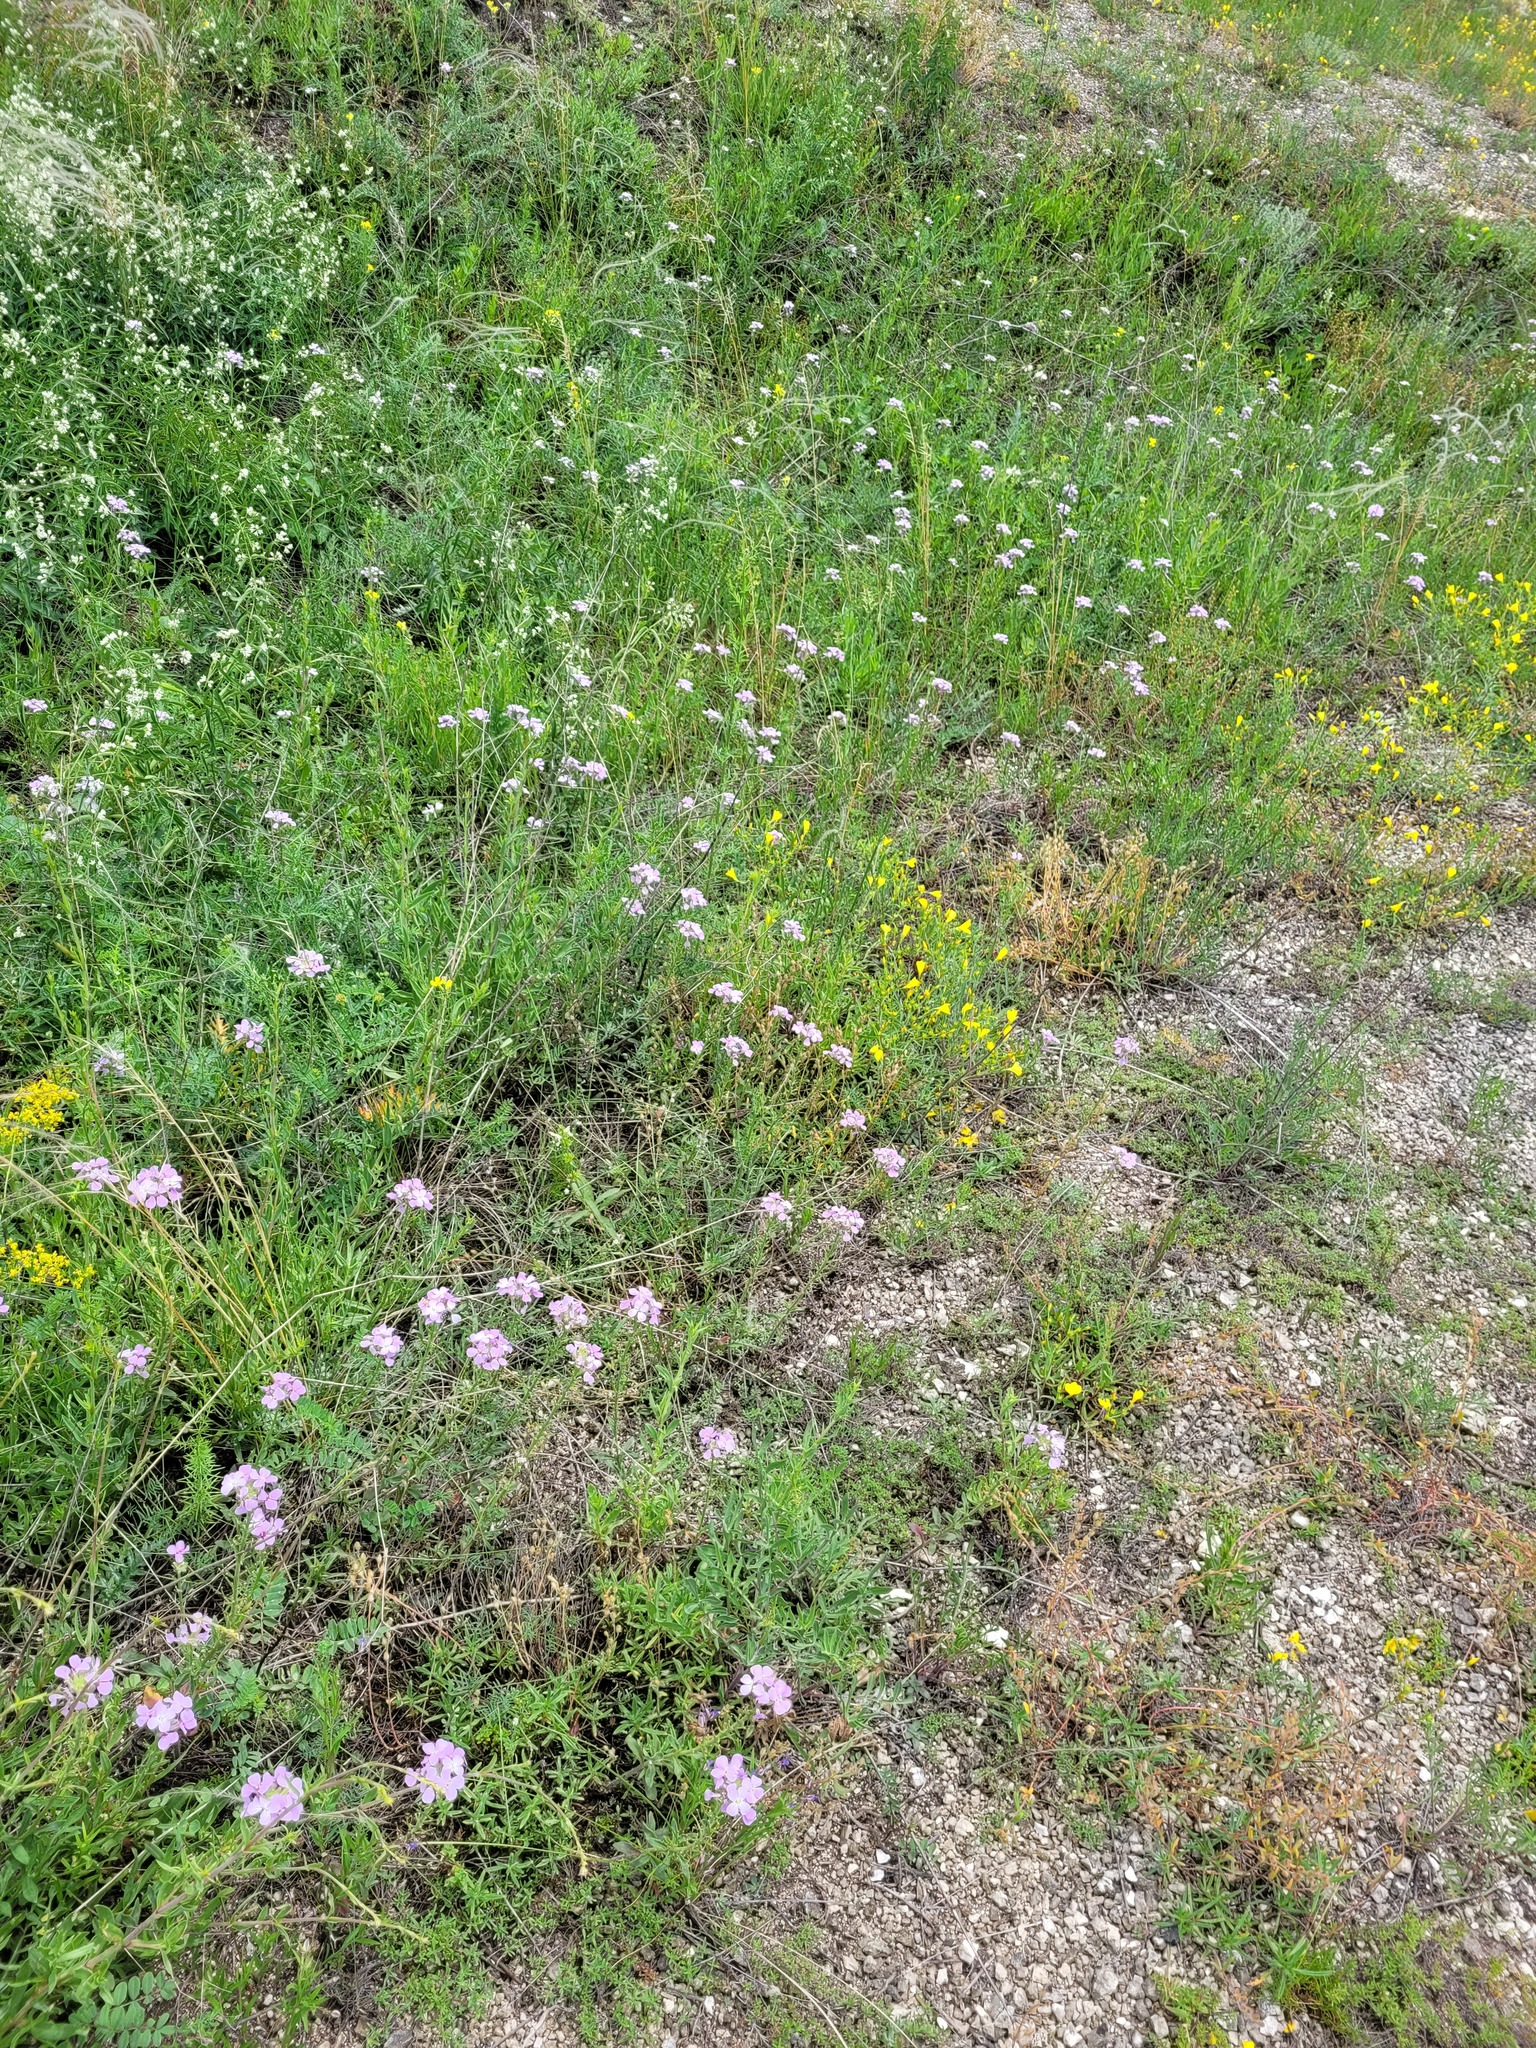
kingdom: Plantae
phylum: Tracheophyta
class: Magnoliopsida
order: Brassicales
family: Brassicaceae
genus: Clausia
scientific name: Clausia aprica
